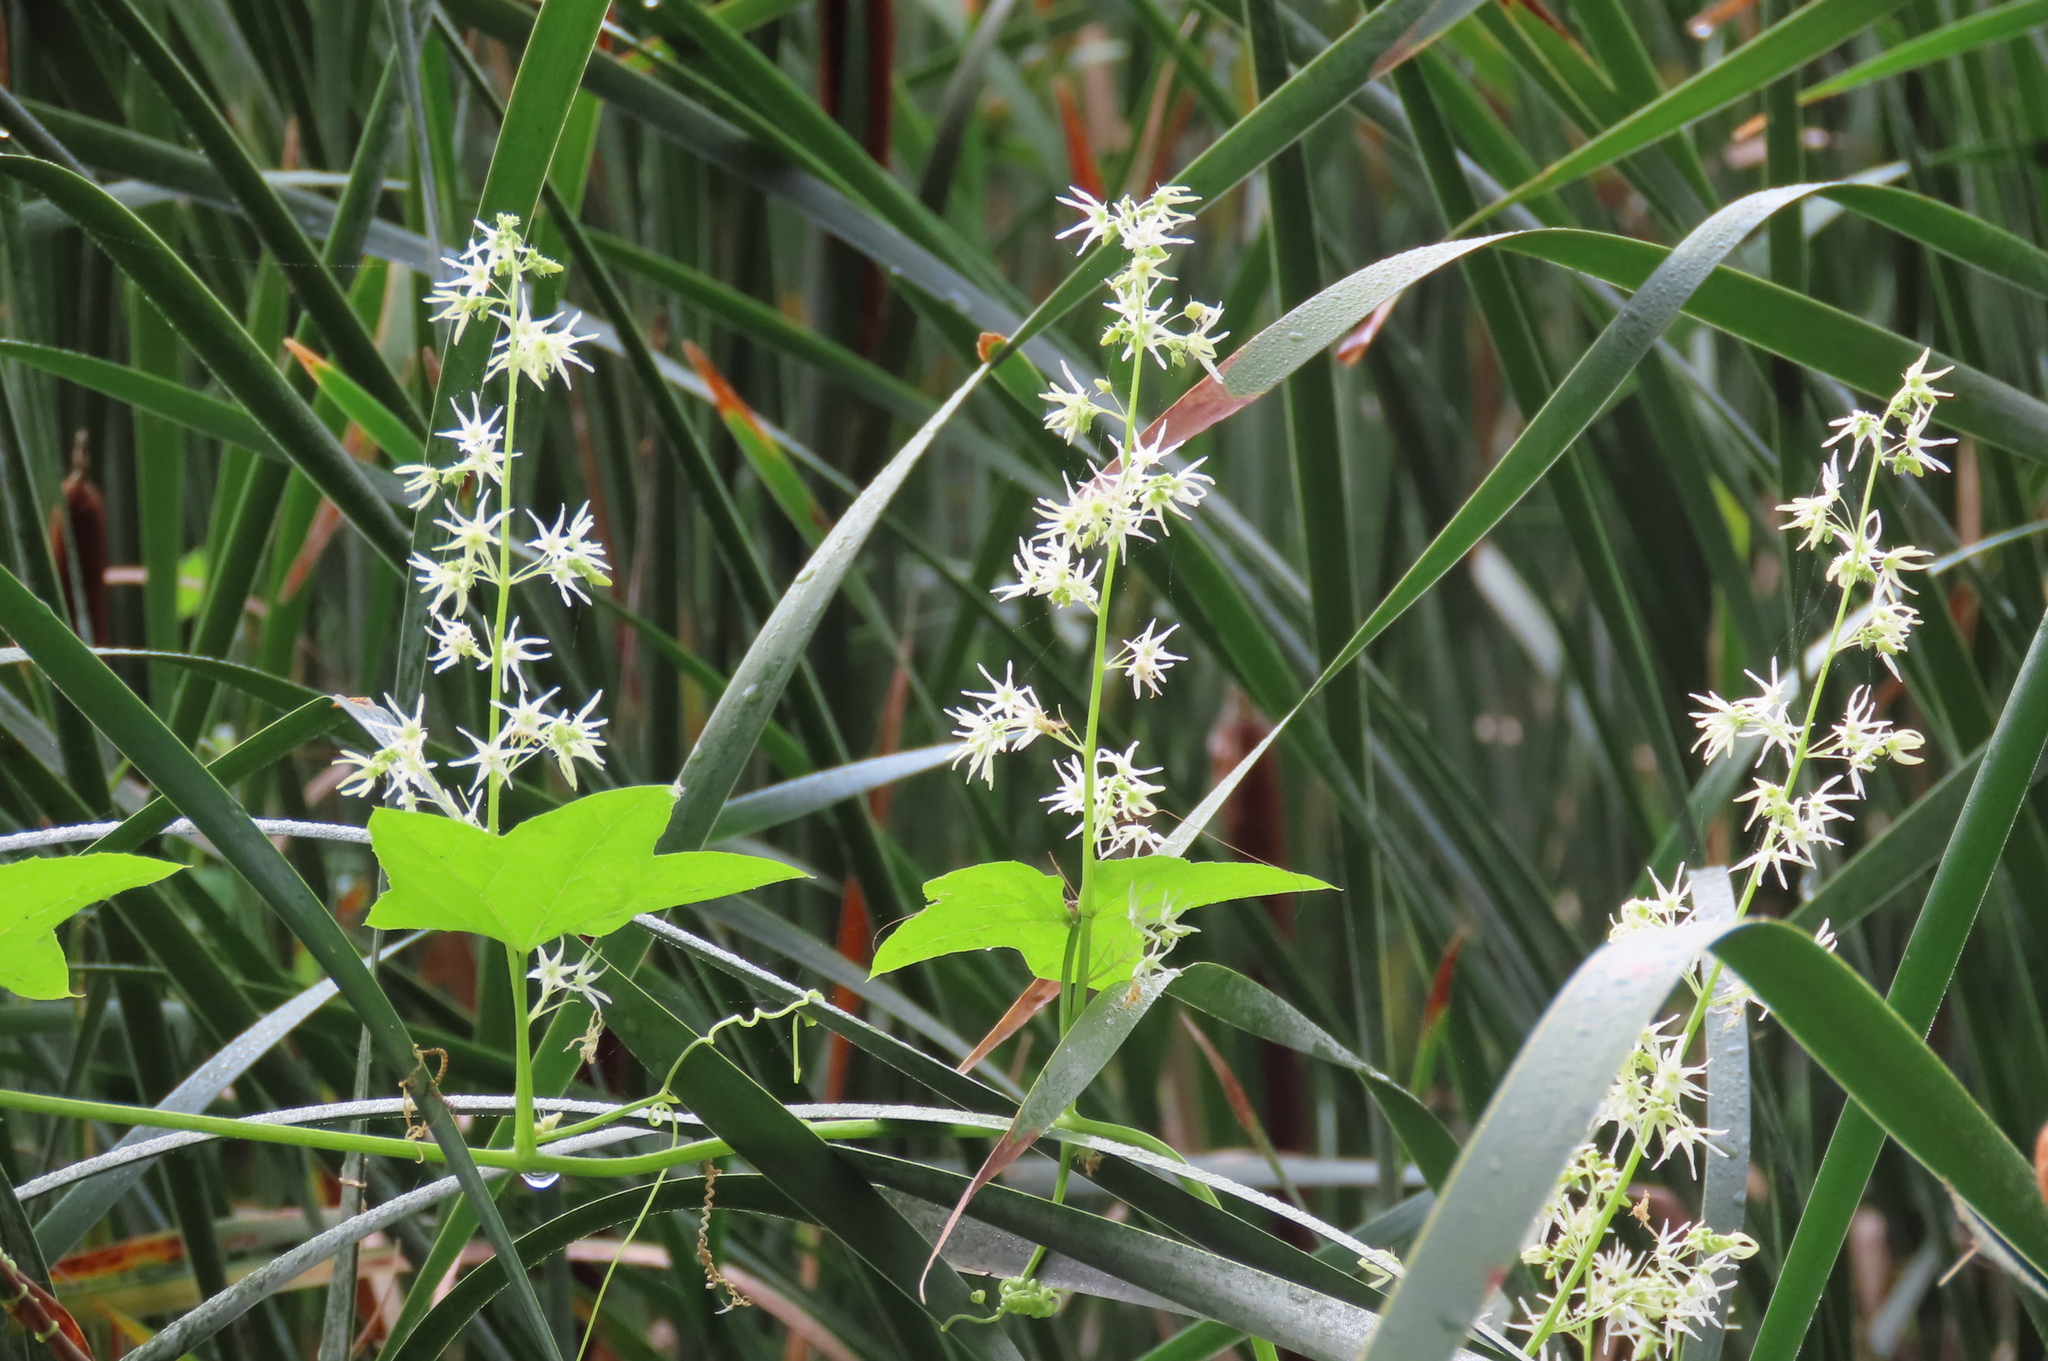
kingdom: Plantae
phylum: Tracheophyta
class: Magnoliopsida
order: Cucurbitales
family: Cucurbitaceae
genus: Echinocystis
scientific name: Echinocystis lobata
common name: Wild cucumber
